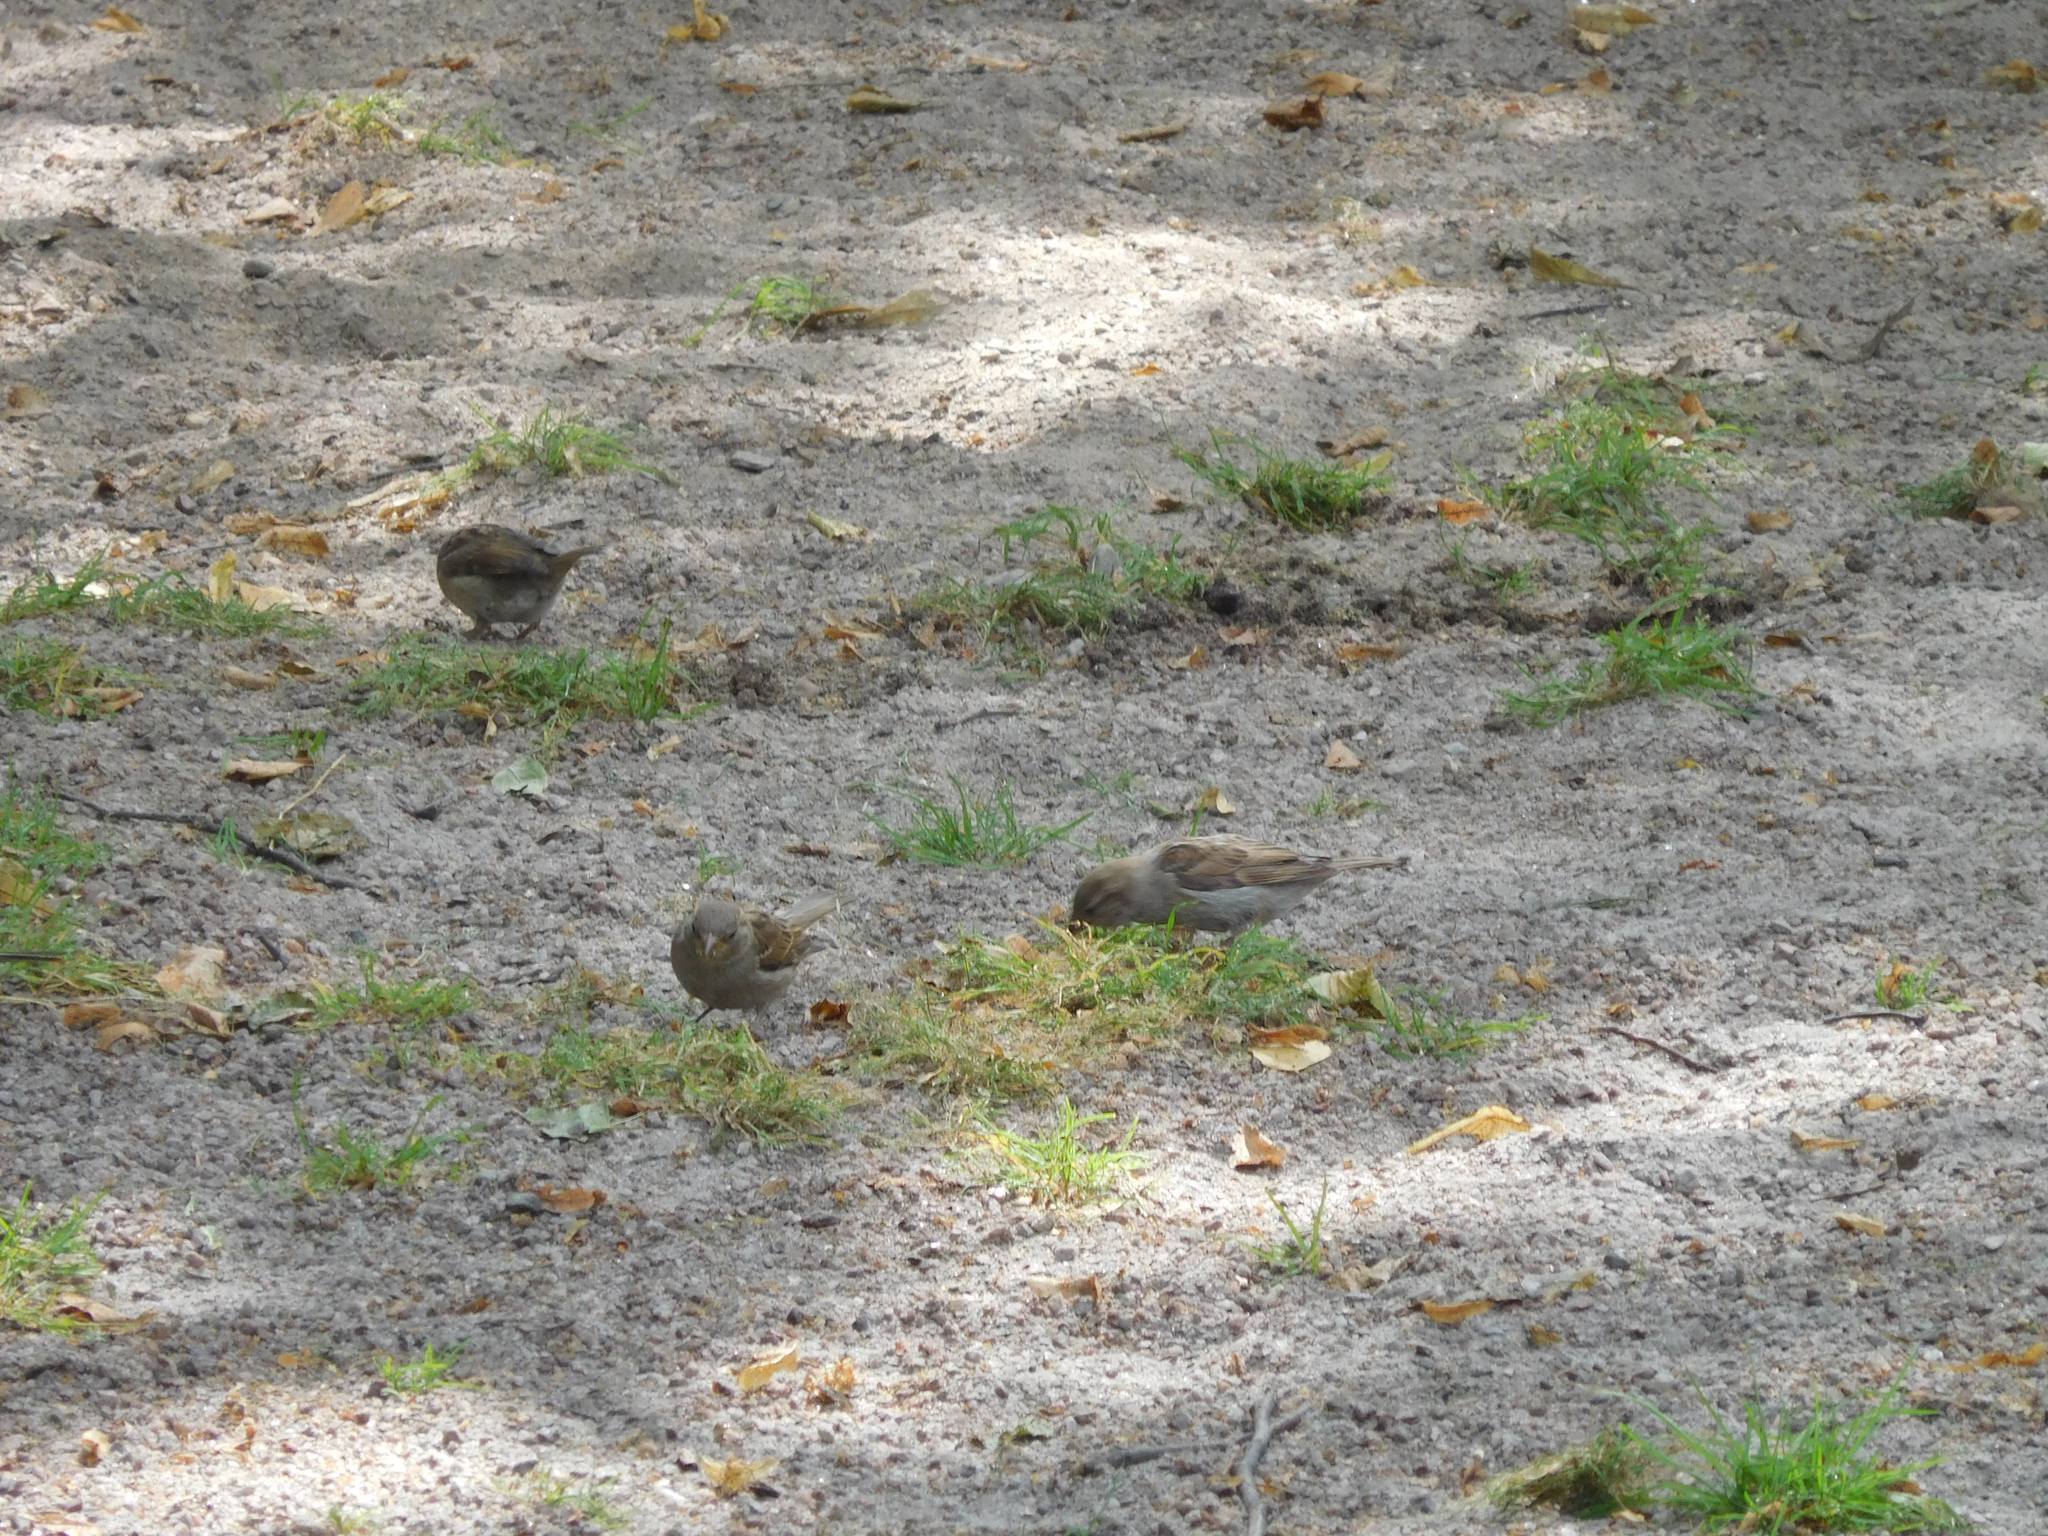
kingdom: Animalia
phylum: Chordata
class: Aves
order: Passeriformes
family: Passeridae
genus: Passer
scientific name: Passer domesticus
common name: House sparrow
